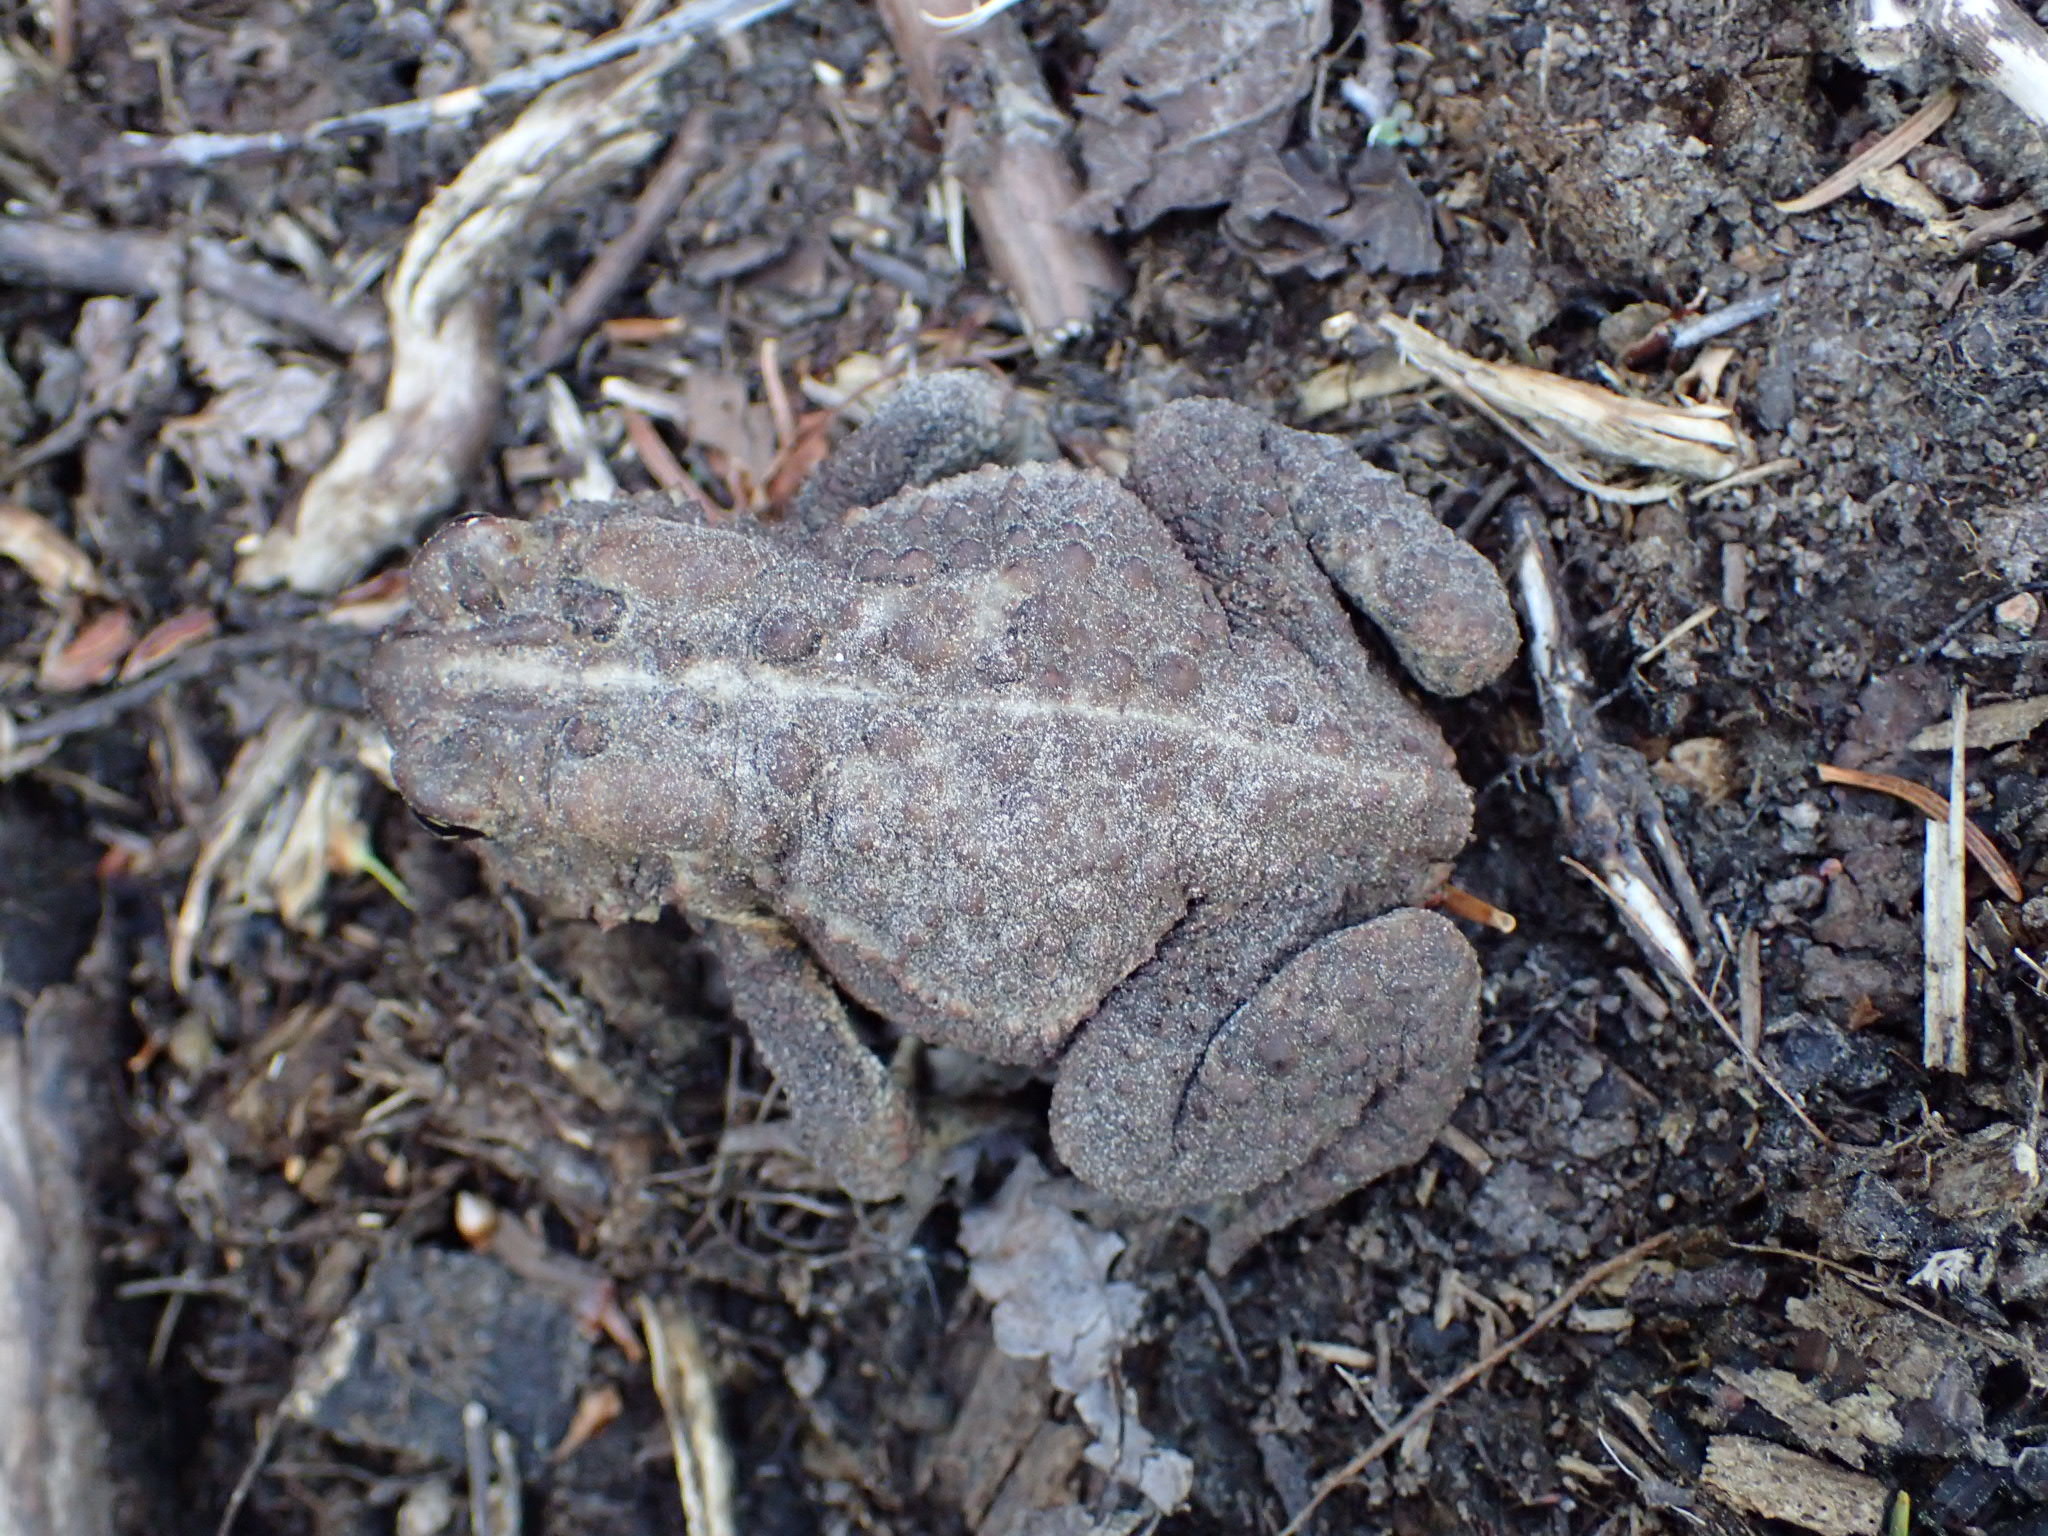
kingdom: Animalia
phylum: Chordata
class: Amphibia
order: Anura
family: Bufonidae
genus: Anaxyrus
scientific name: Anaxyrus americanus
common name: American toad
